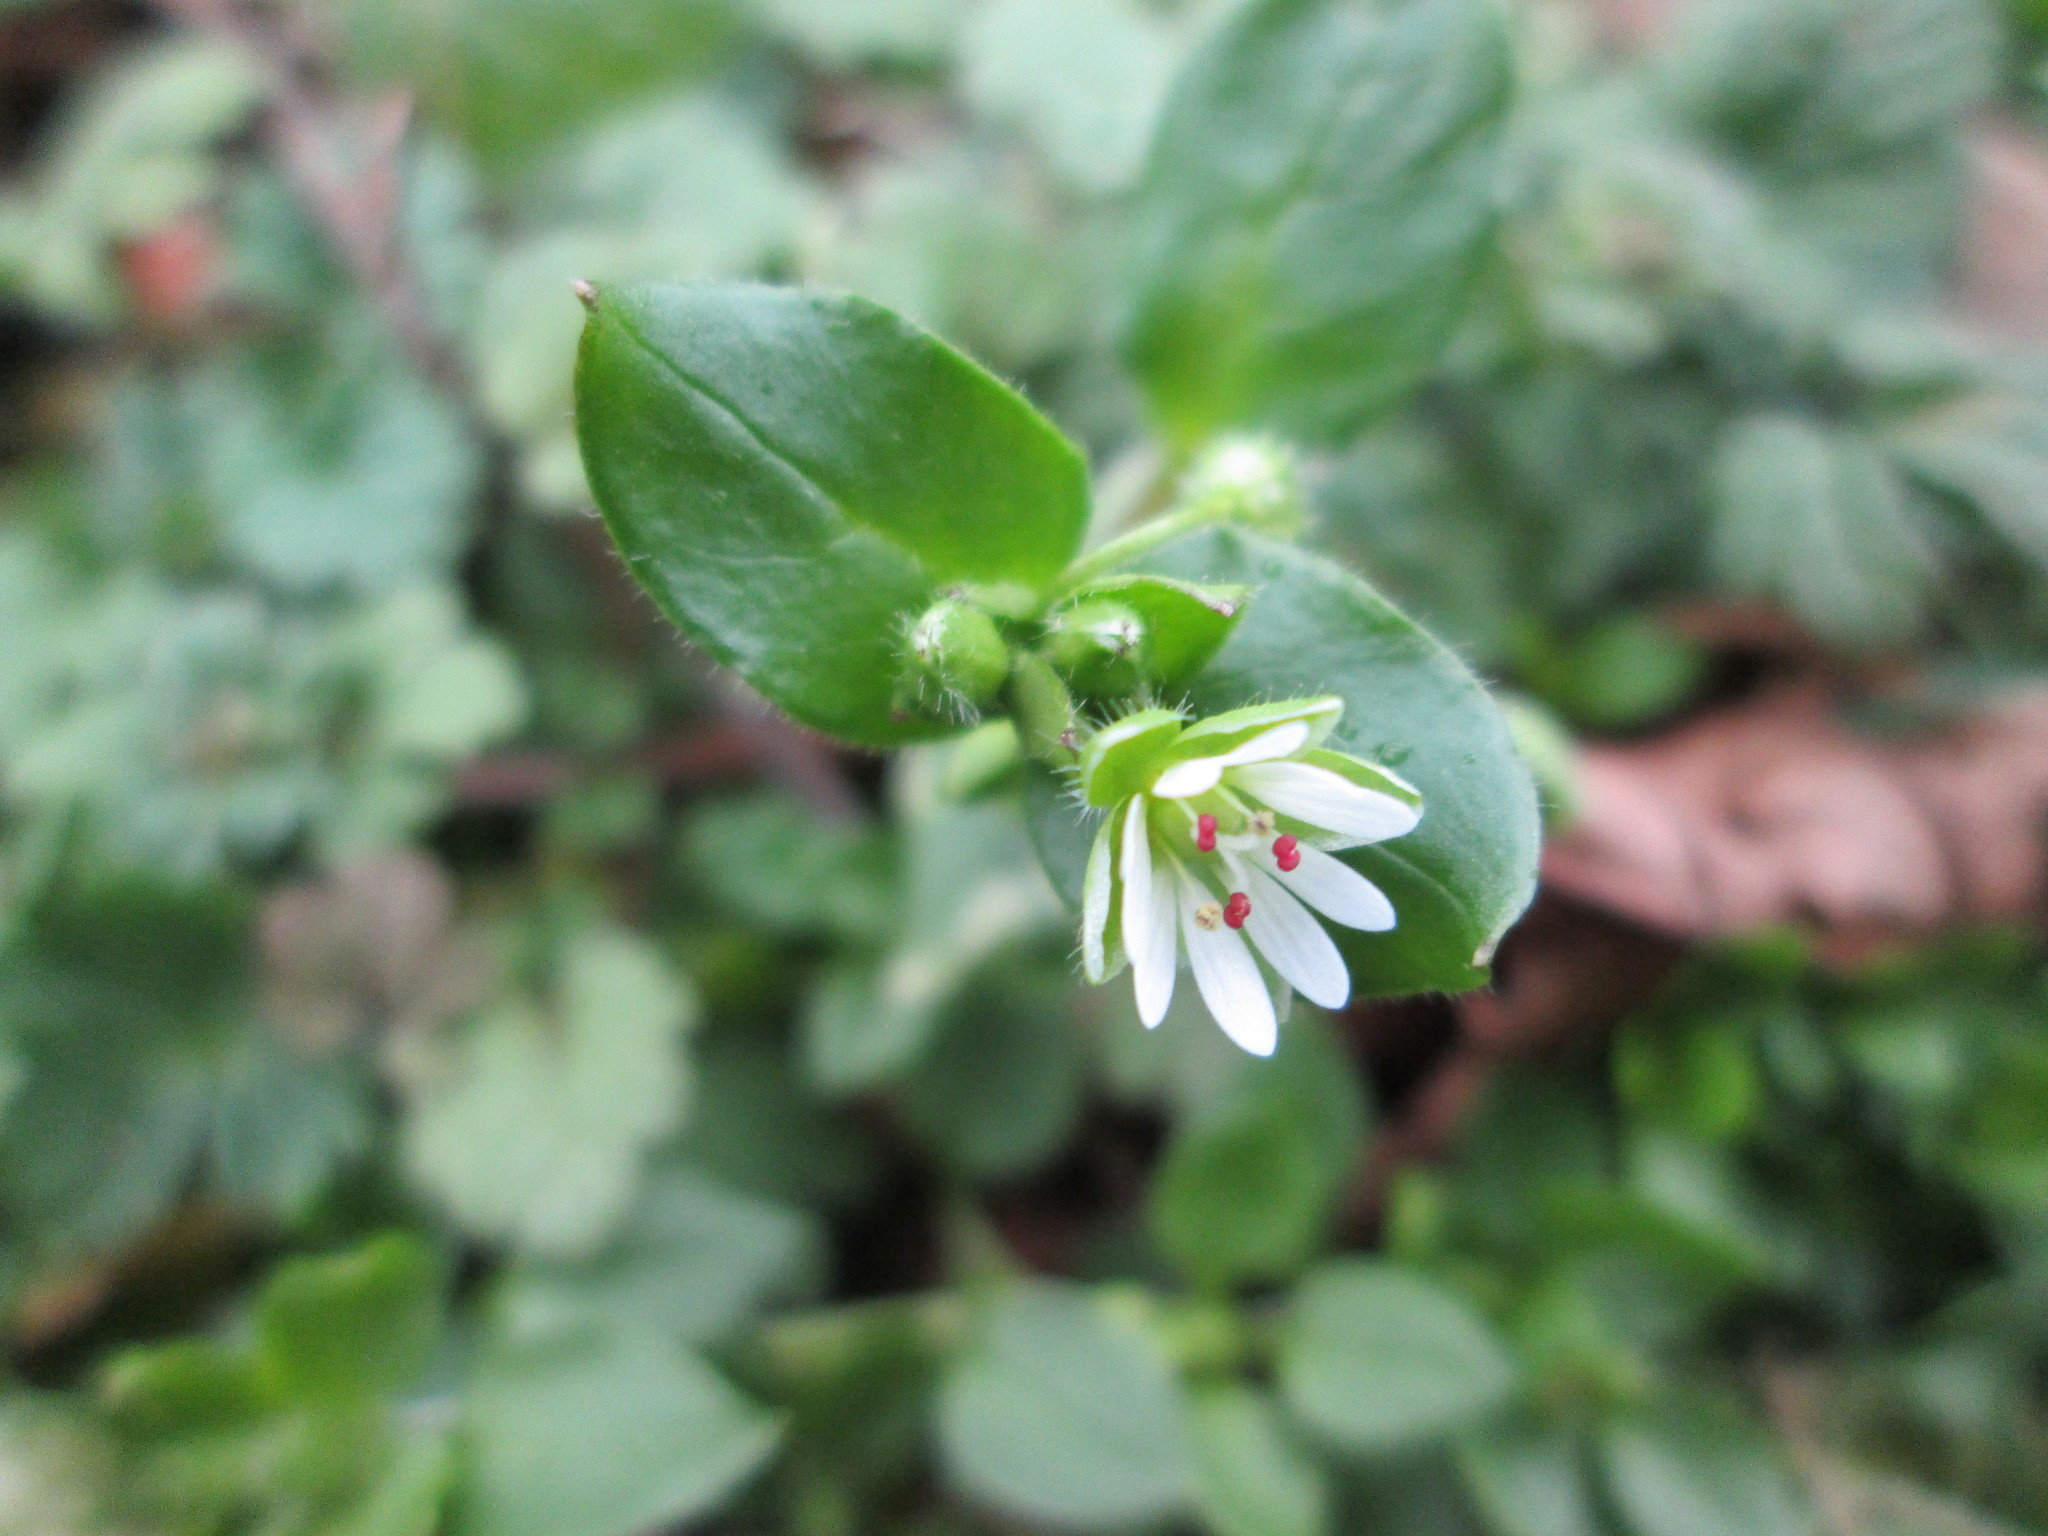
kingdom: Plantae
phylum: Tracheophyta
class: Magnoliopsida
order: Caryophyllales
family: Caryophyllaceae
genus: Stellaria
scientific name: Stellaria media
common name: Common chickweed
